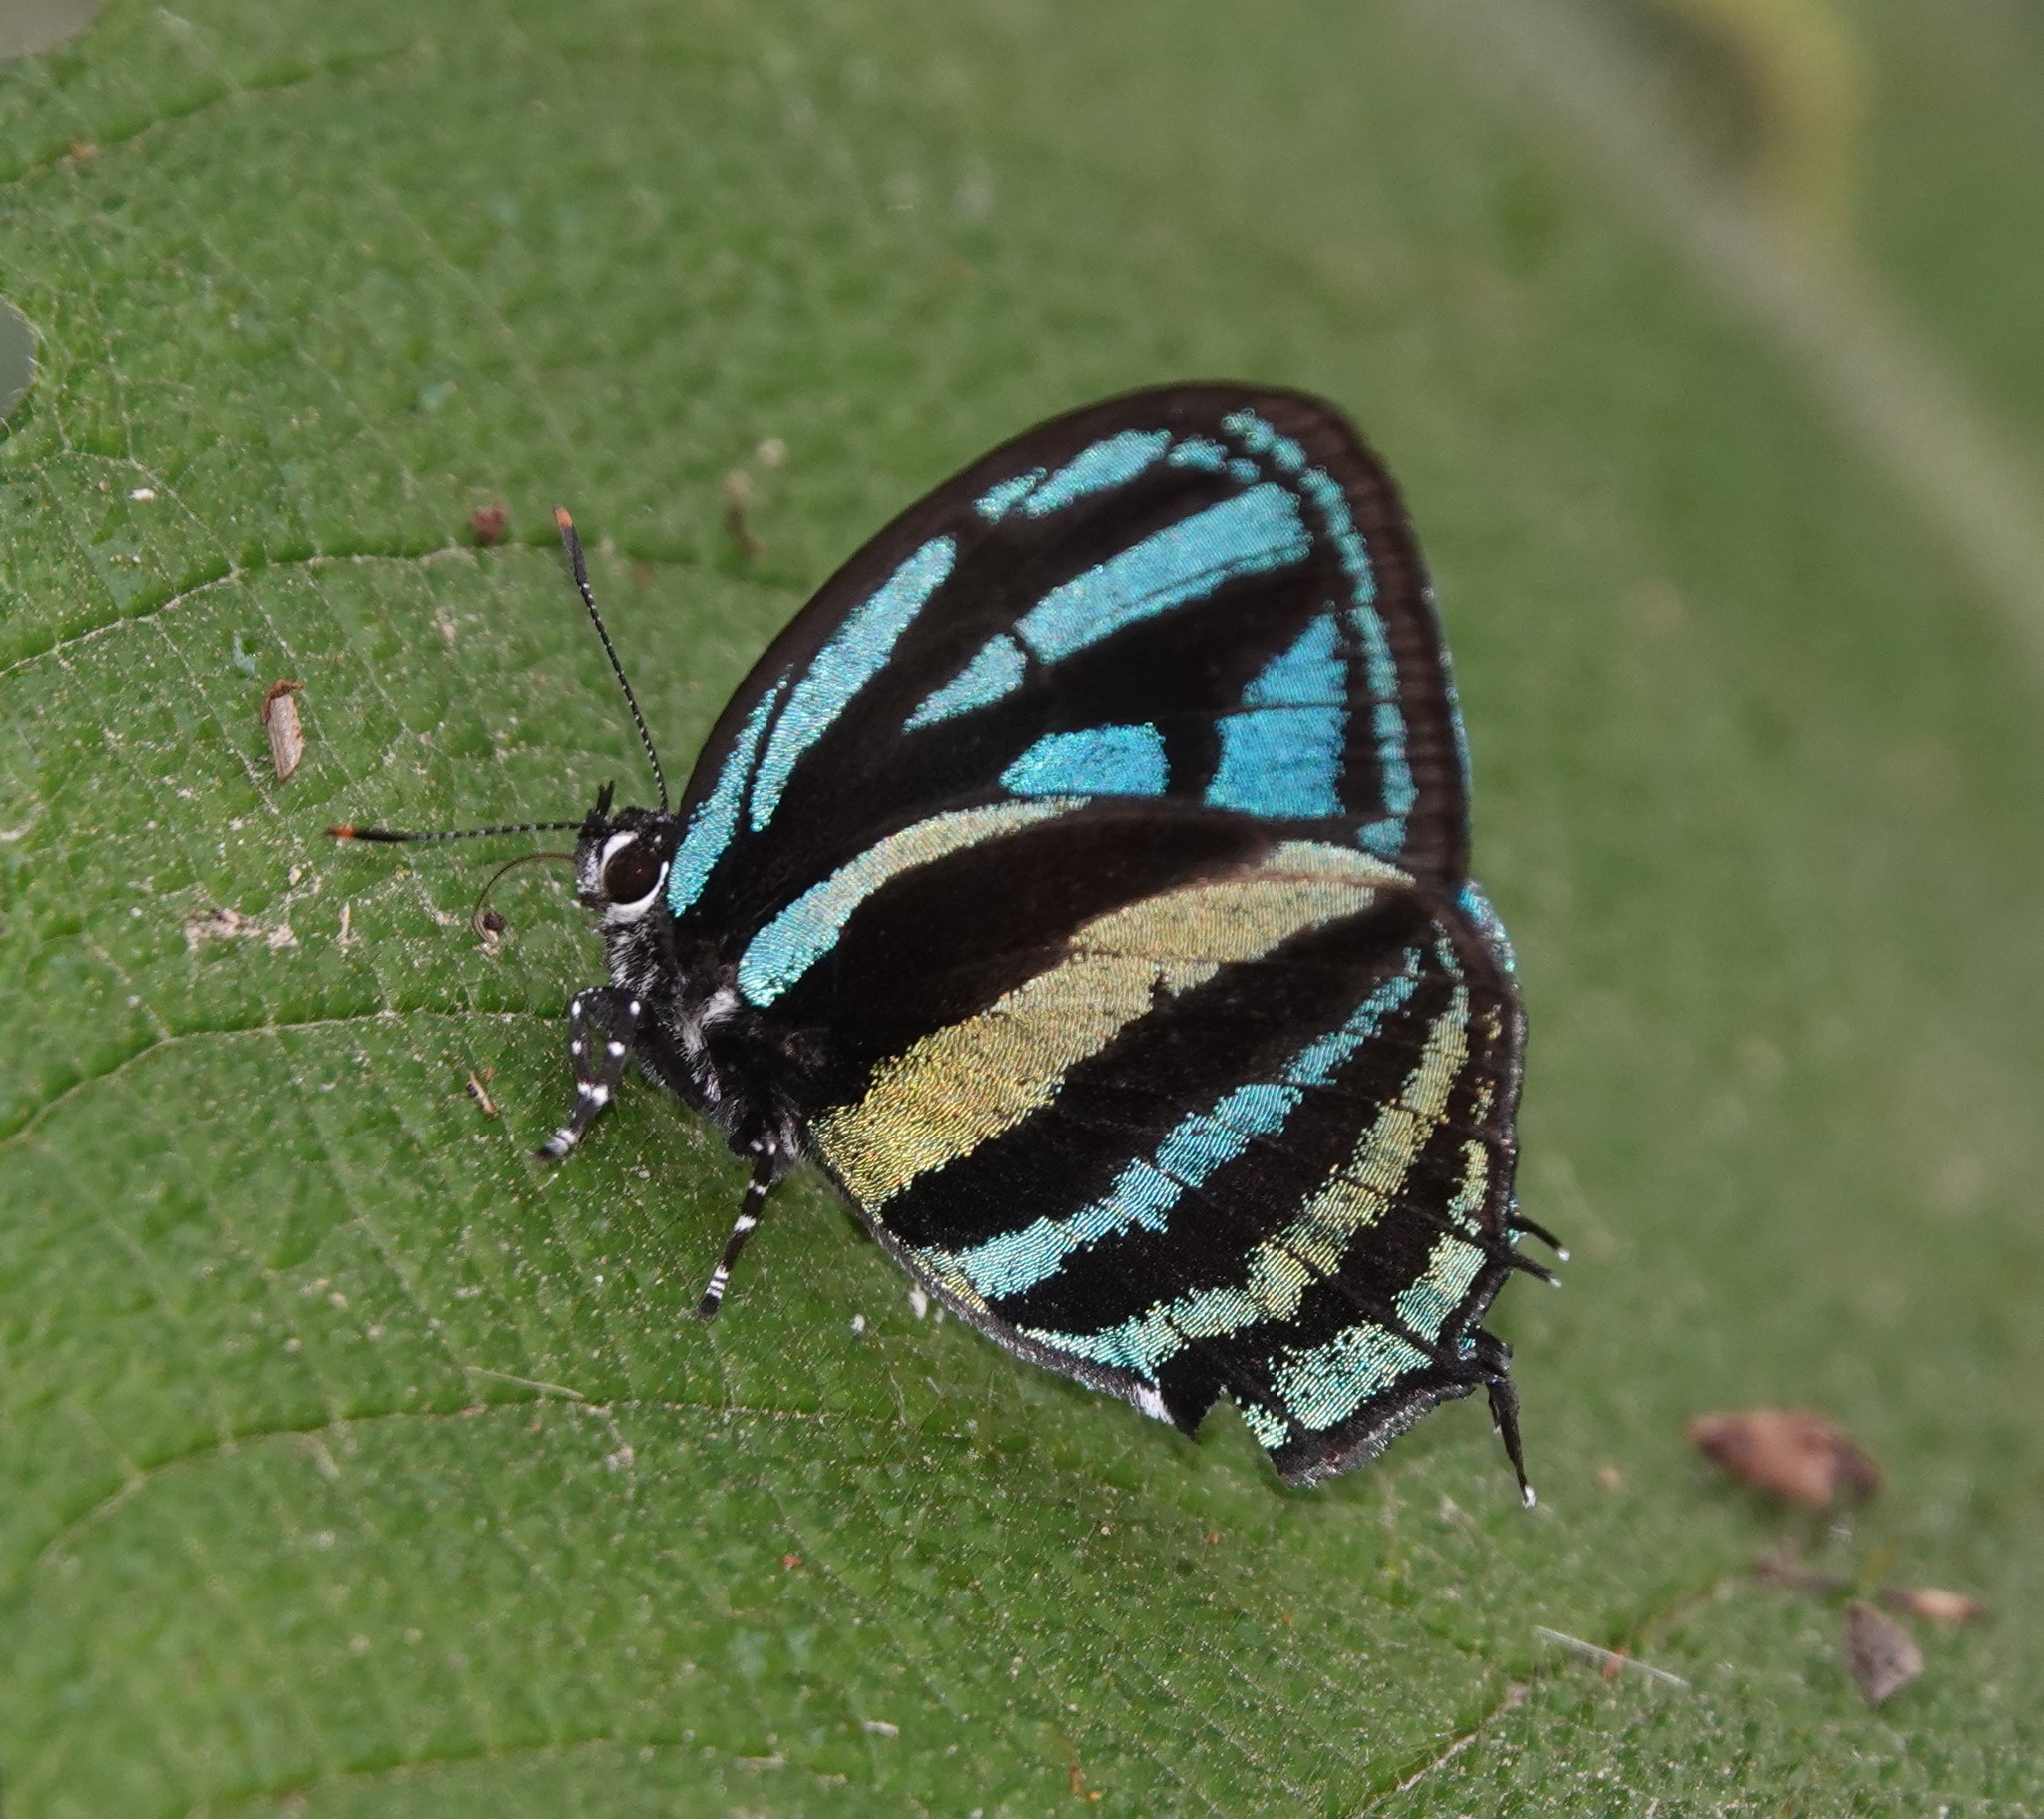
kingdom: Animalia
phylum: Arthropoda
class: Insecta
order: Lepidoptera
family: Lycaenidae
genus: Thestius
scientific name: Thestius
